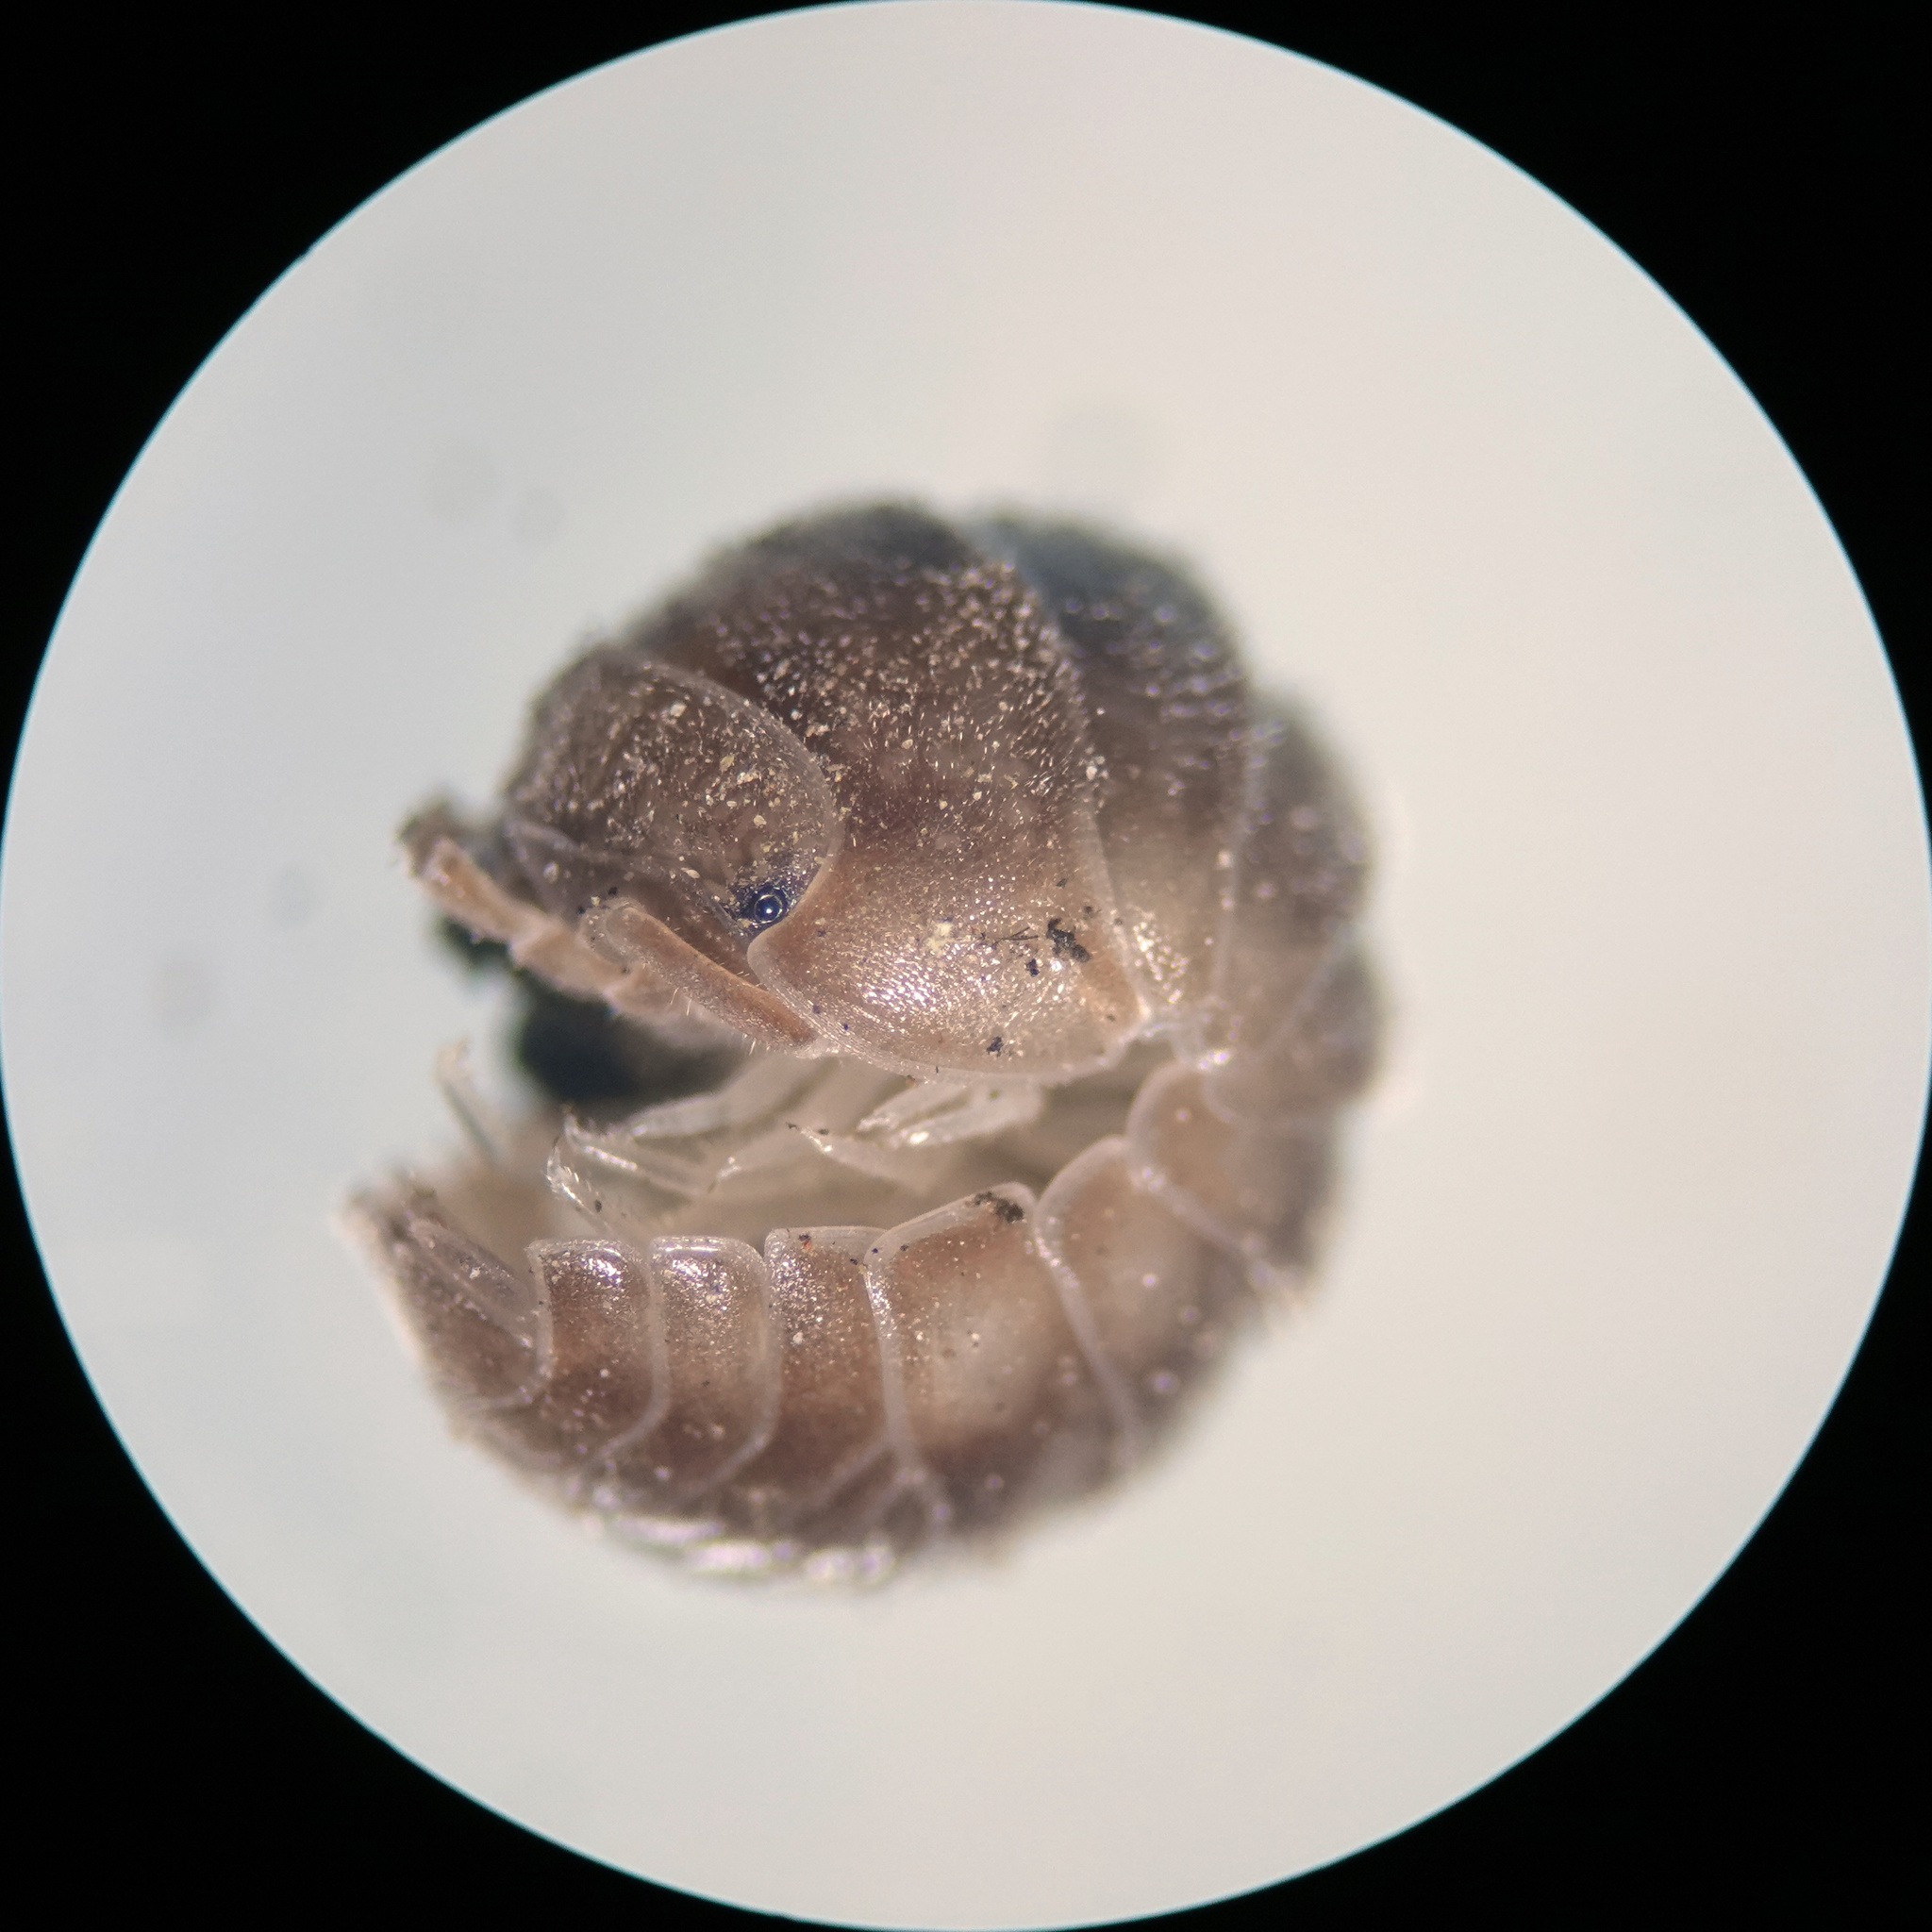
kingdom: Animalia
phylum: Arthropoda
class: Malacostraca
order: Isopoda
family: Armadillidiidae
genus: Eluma
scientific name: Eluma caelata
